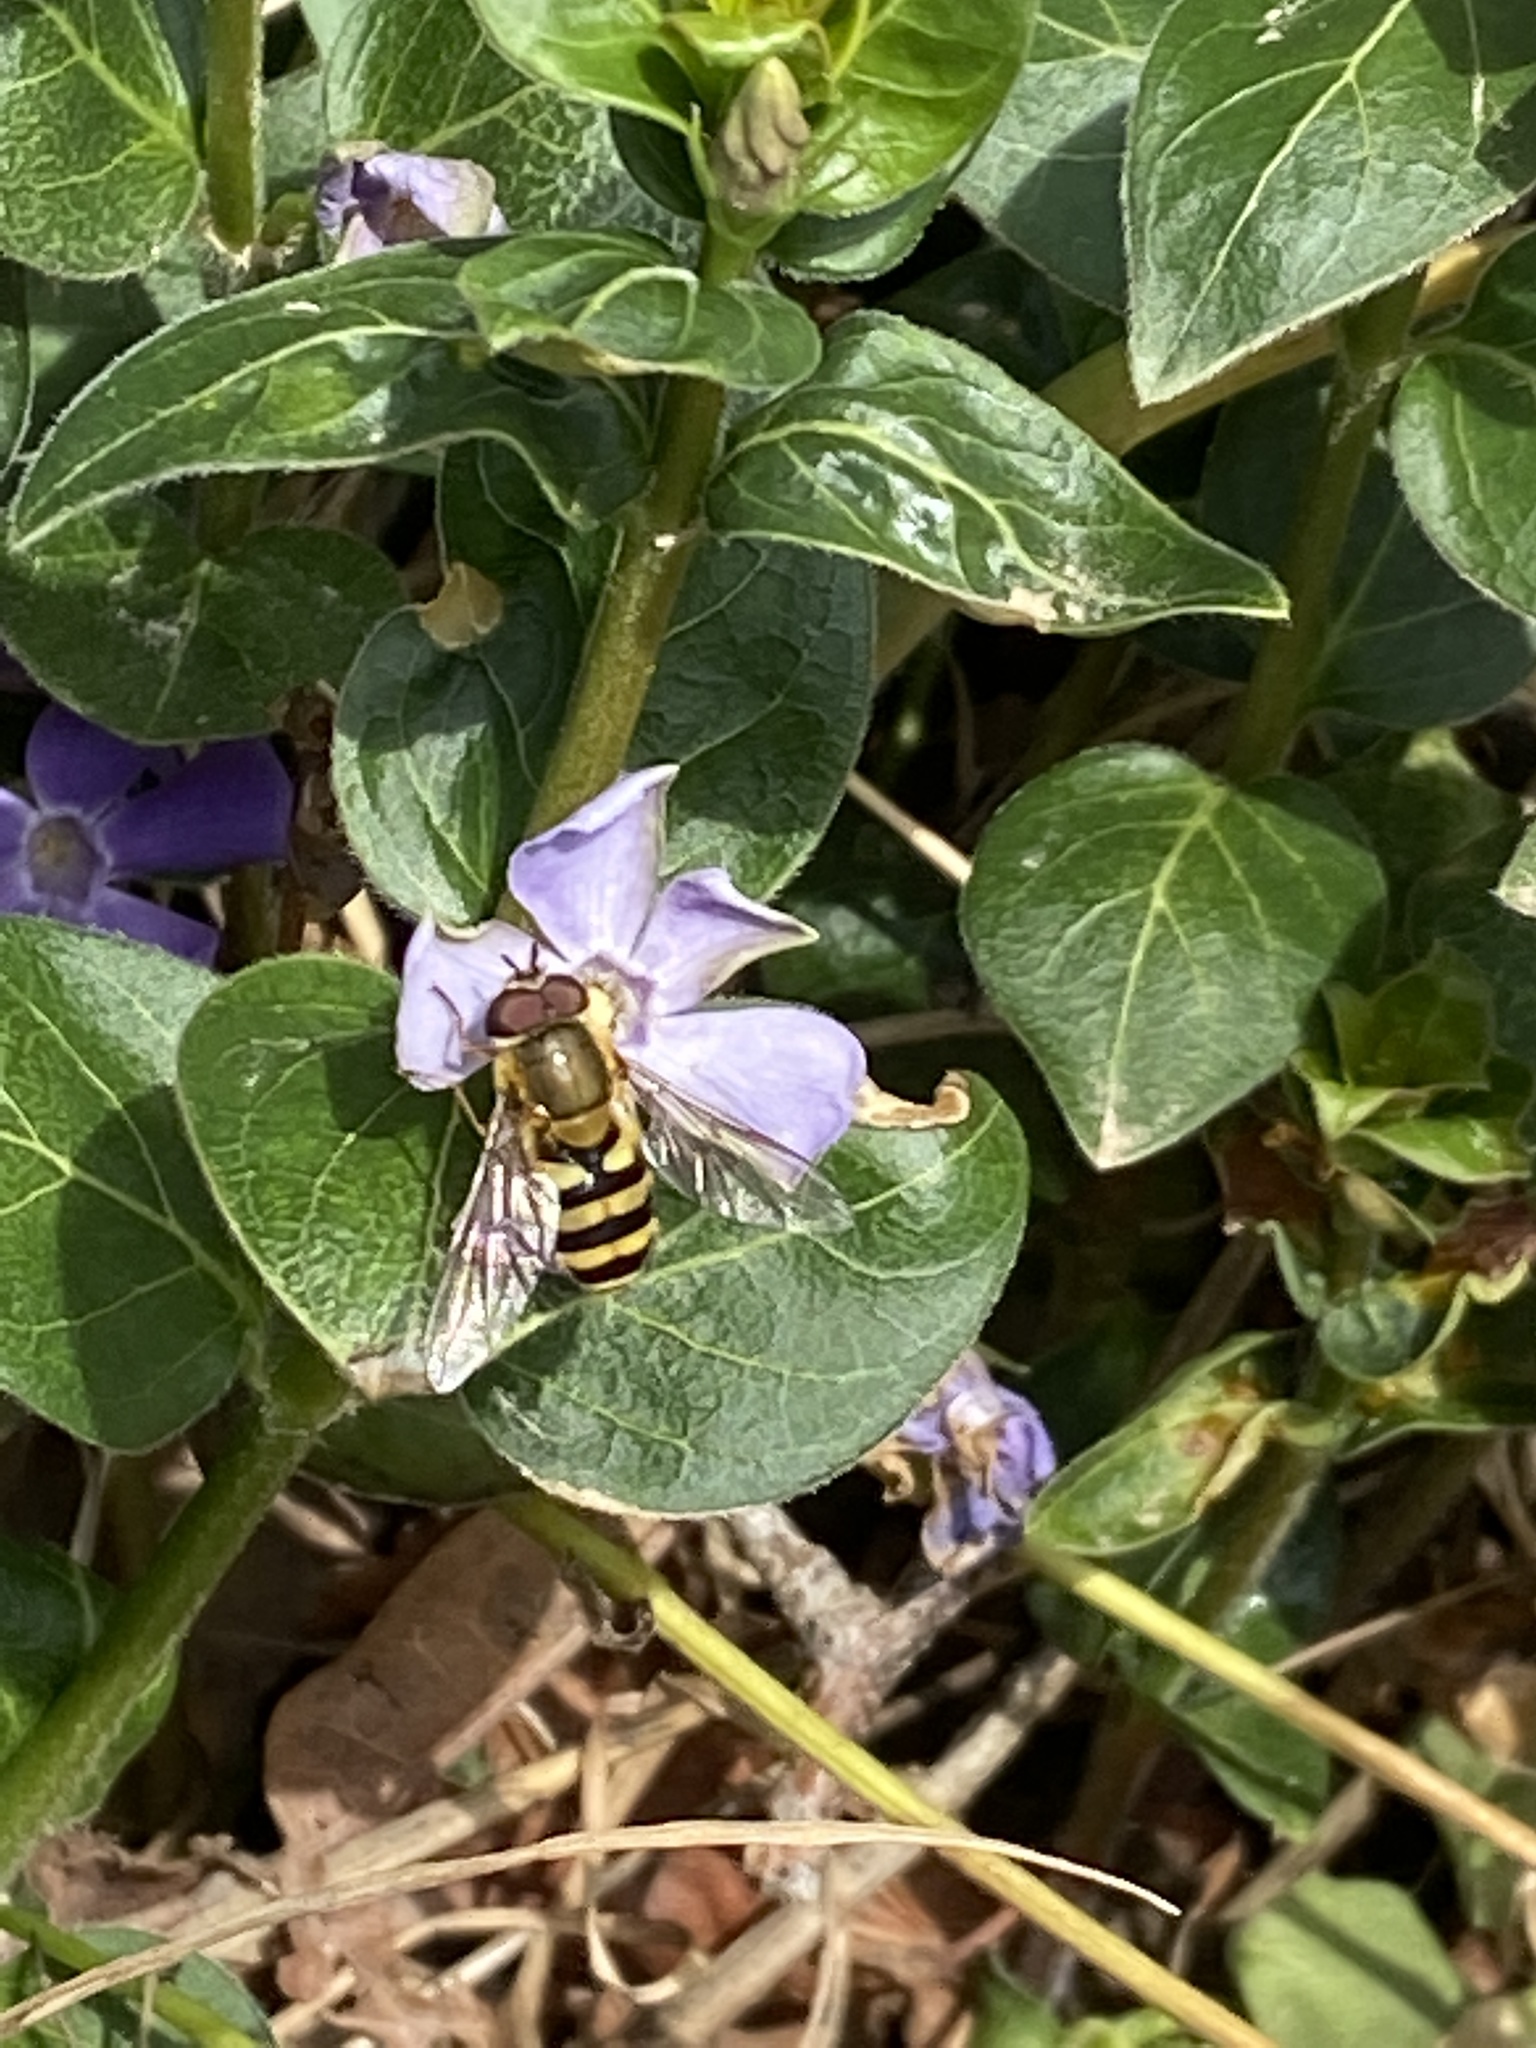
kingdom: Animalia
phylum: Arthropoda
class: Insecta
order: Diptera
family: Syrphidae
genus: Syrphus
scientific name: Syrphus
